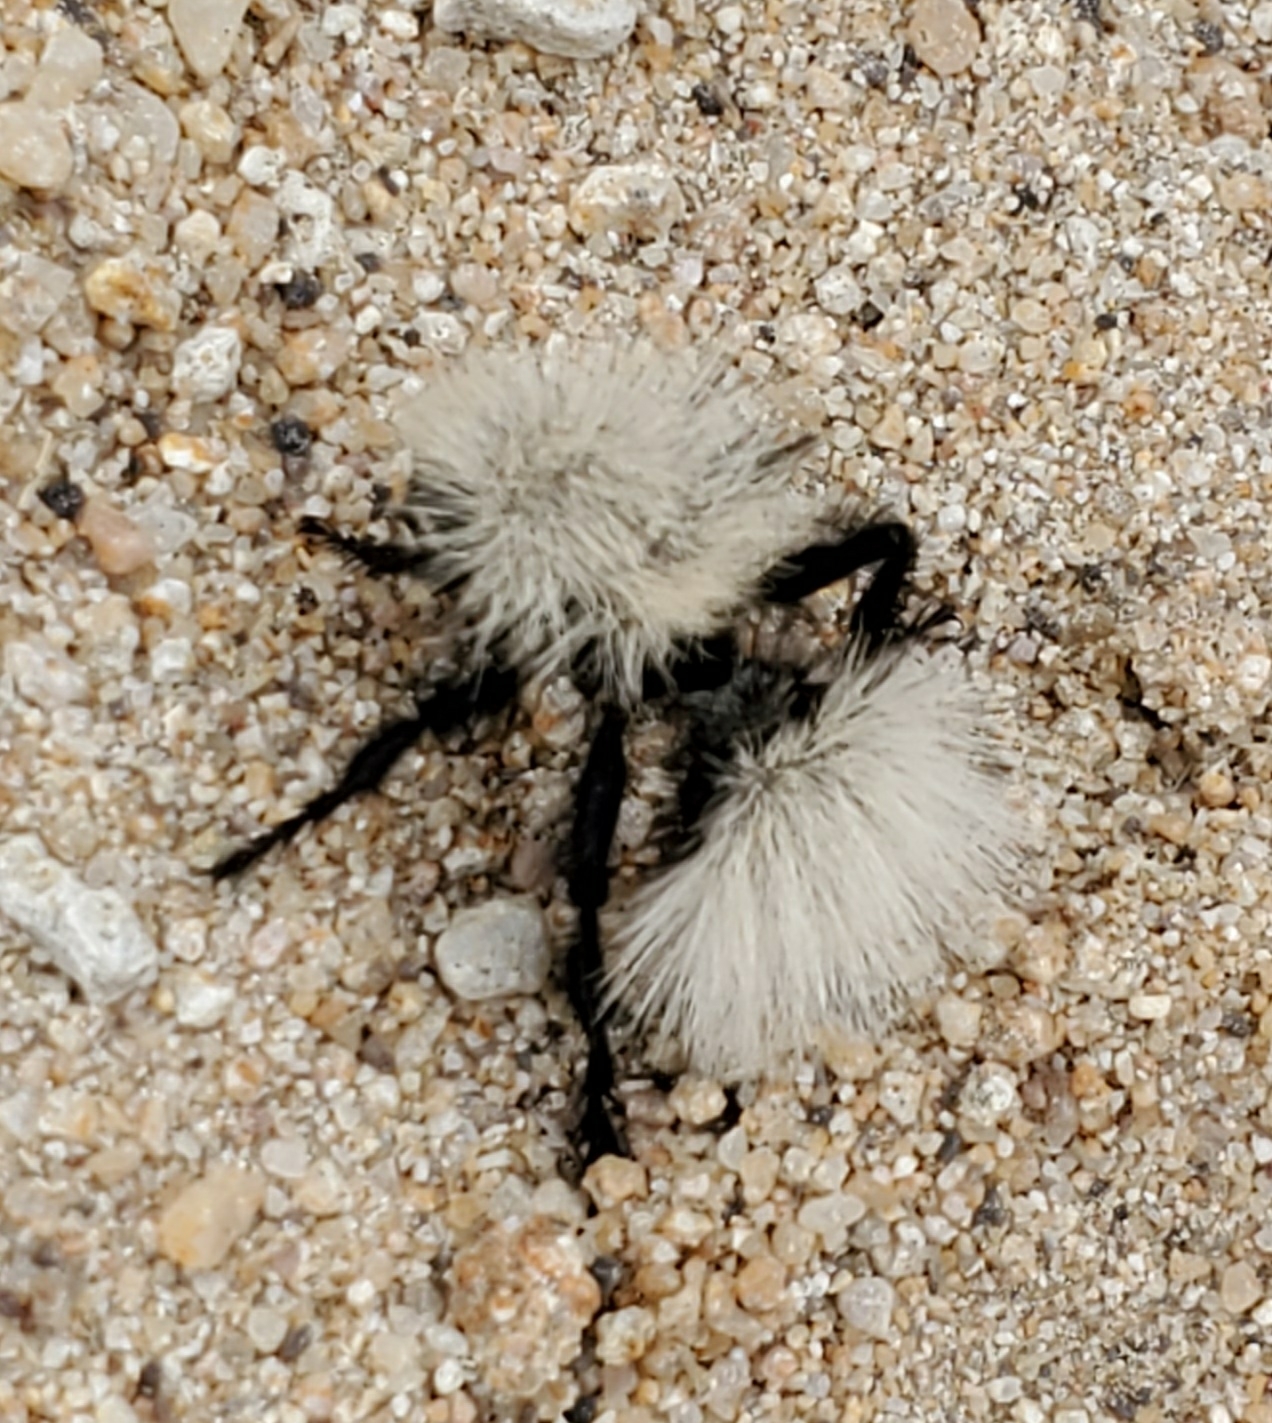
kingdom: Animalia
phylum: Arthropoda
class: Insecta
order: Hymenoptera
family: Mutillidae
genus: Dasymutilla
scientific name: Dasymutilla
